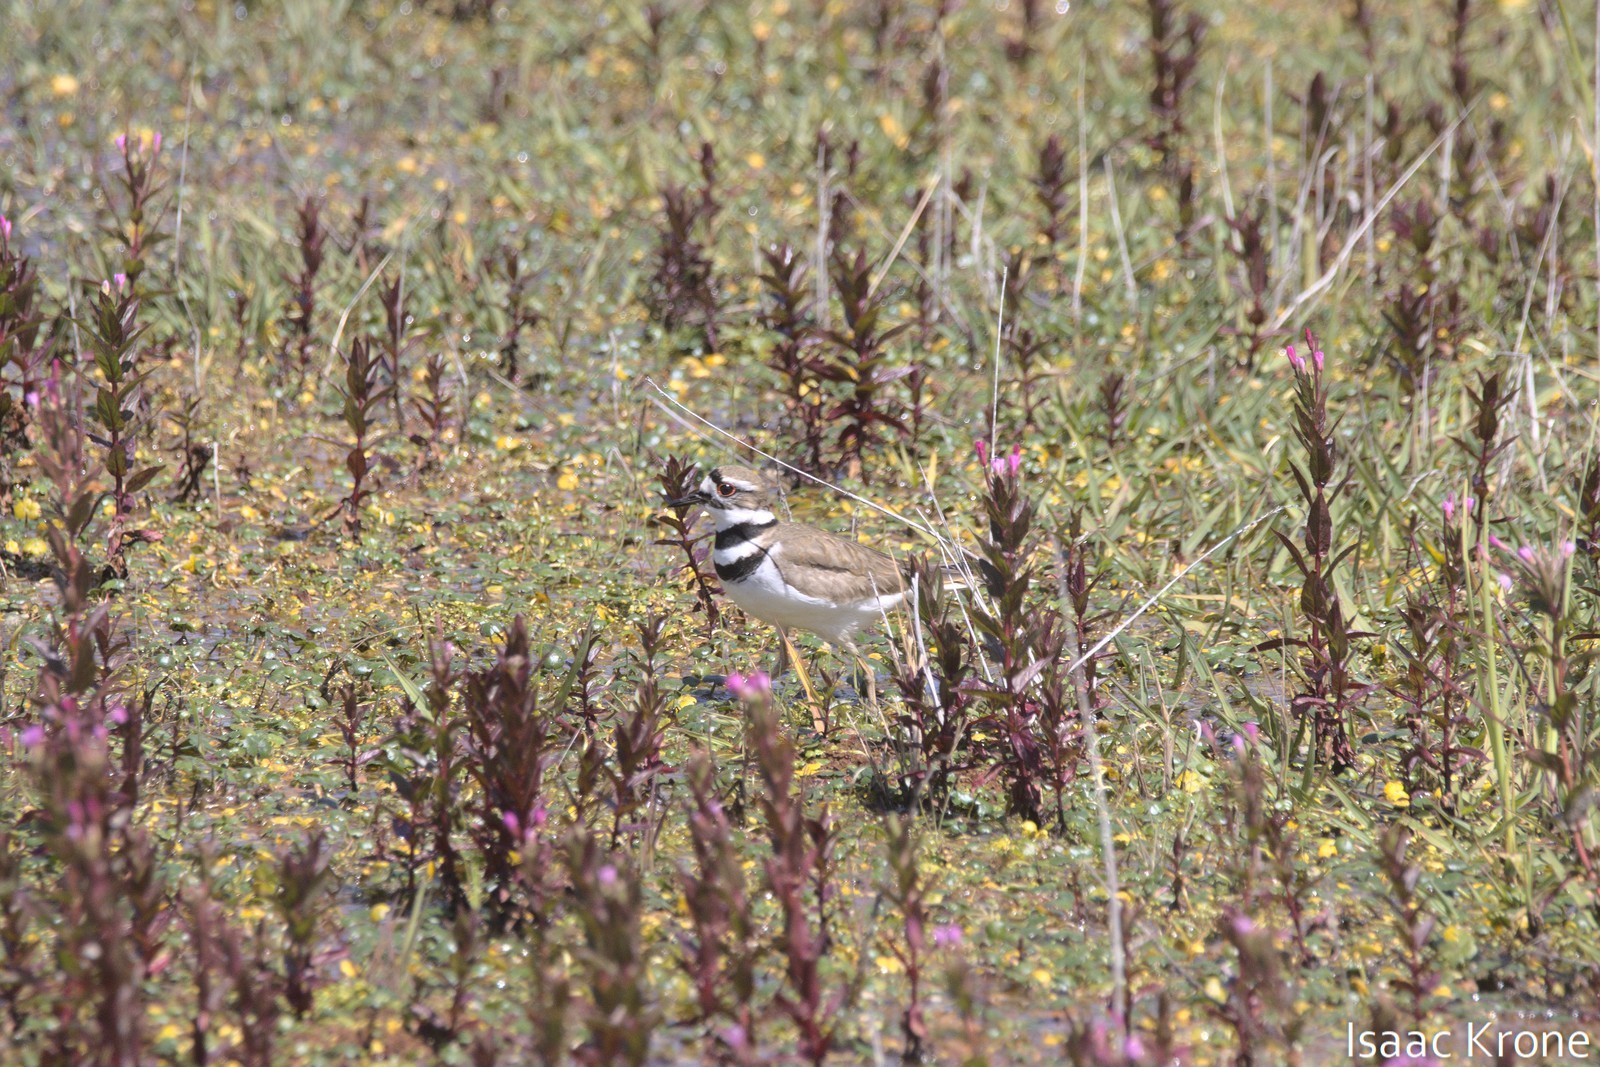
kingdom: Animalia
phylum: Chordata
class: Aves
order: Charadriiformes
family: Charadriidae
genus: Charadrius
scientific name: Charadrius vociferus
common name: Killdeer
